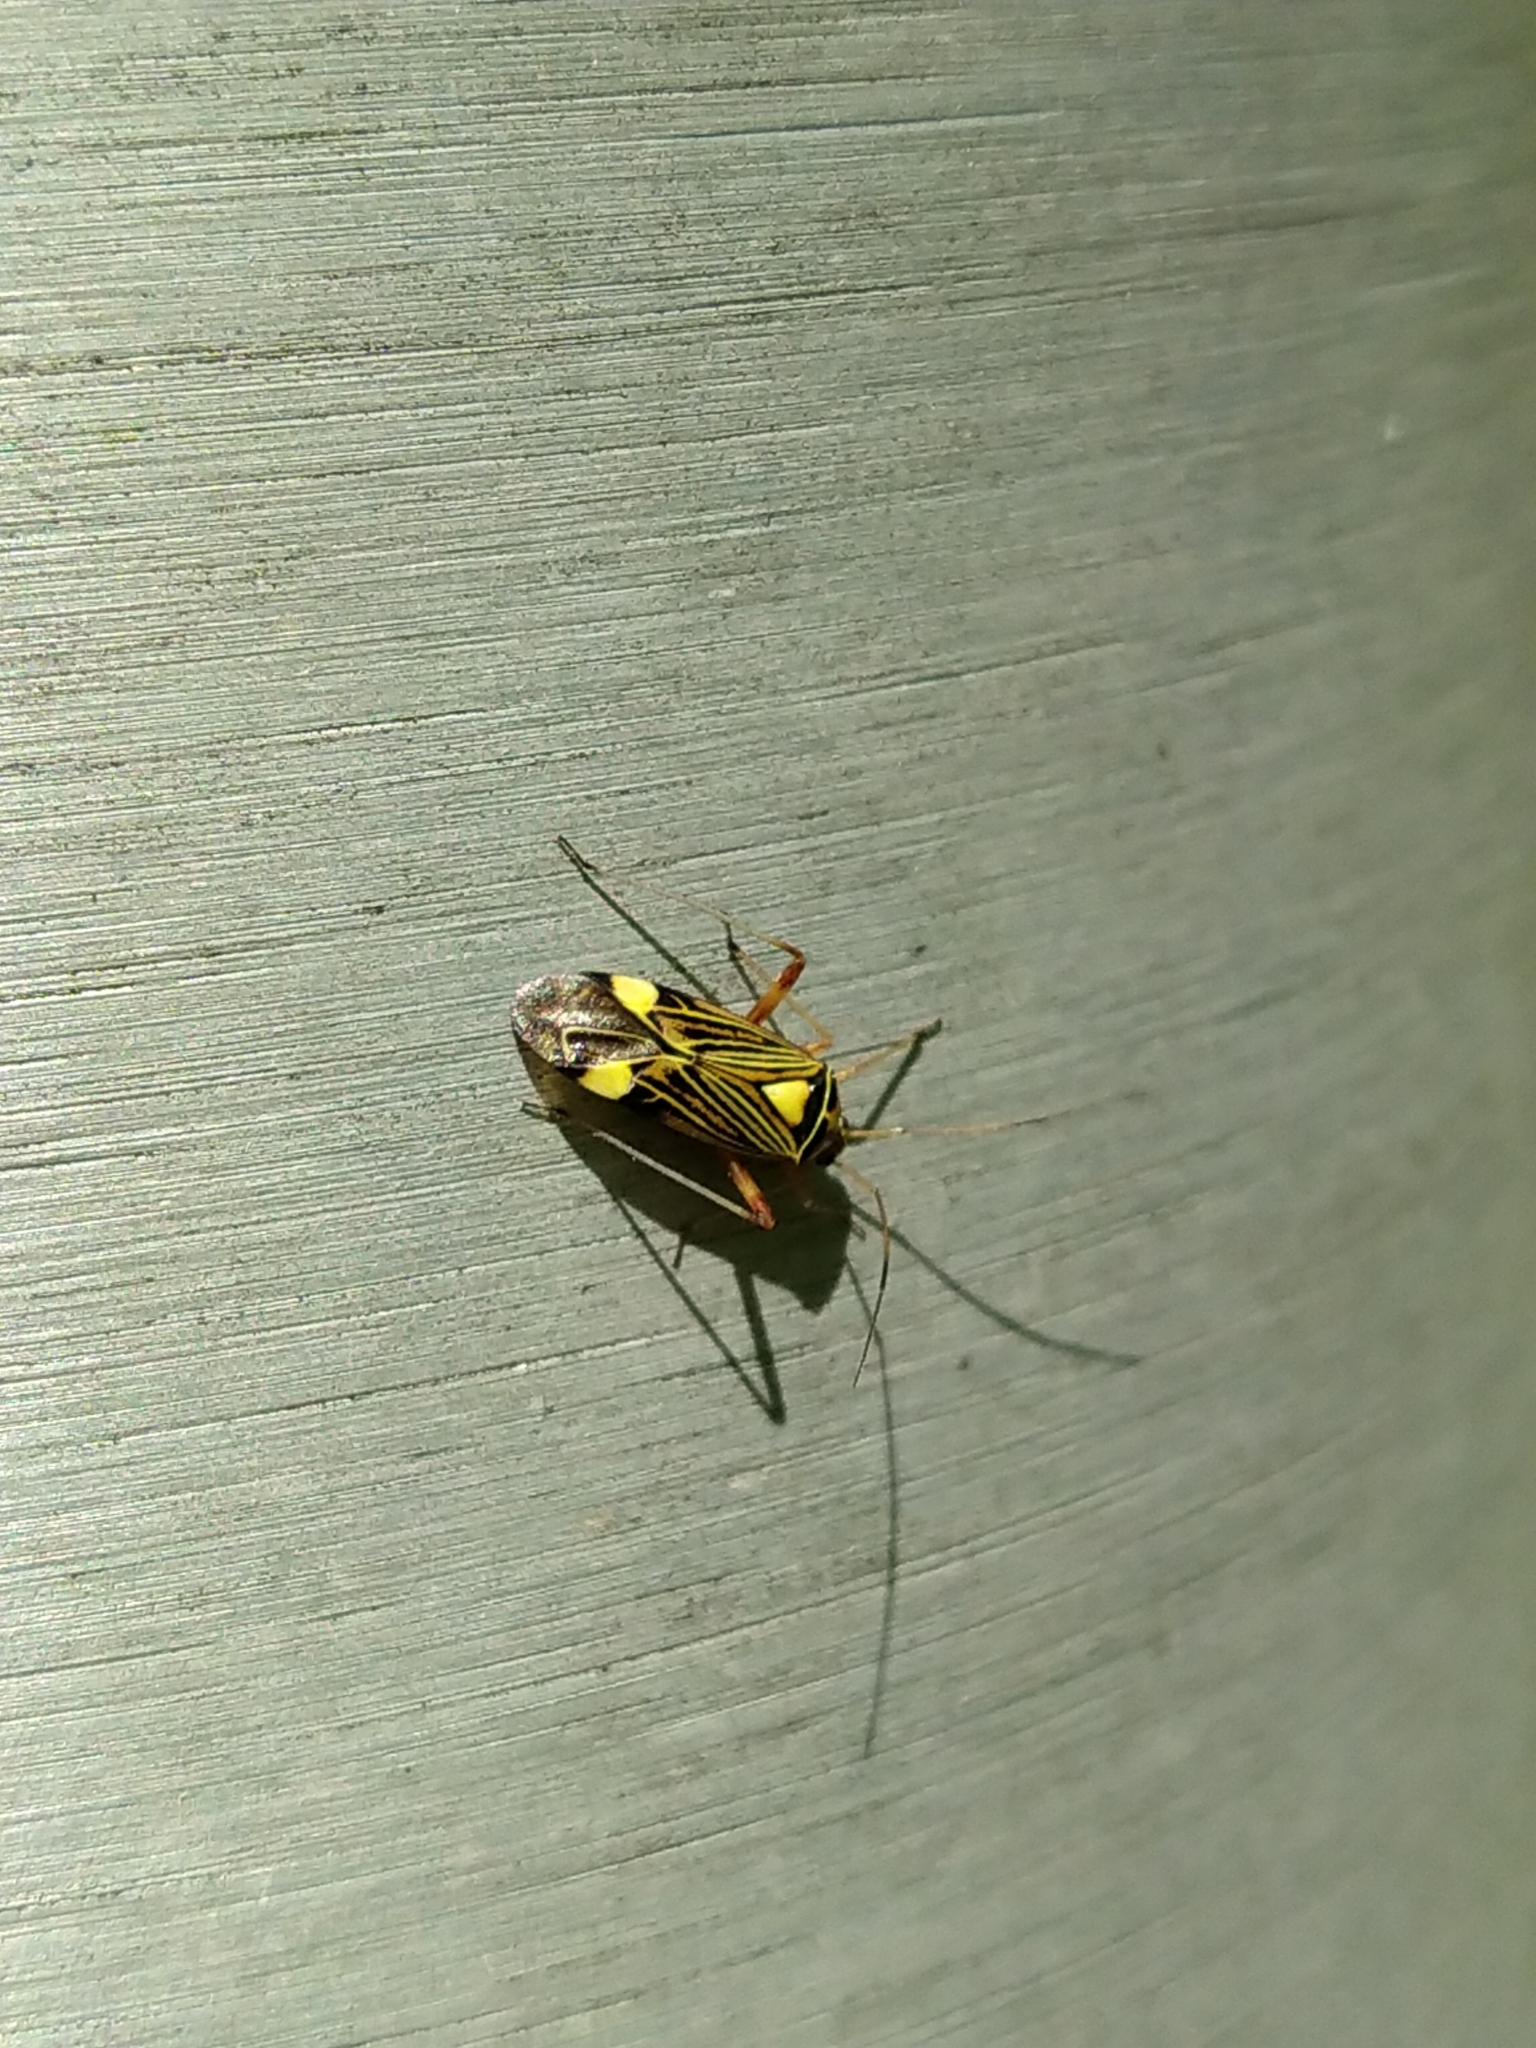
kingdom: Animalia
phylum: Arthropoda
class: Insecta
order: Hemiptera
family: Miridae
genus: Rhabdomiris
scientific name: Rhabdomiris striatellus
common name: Plant bug
